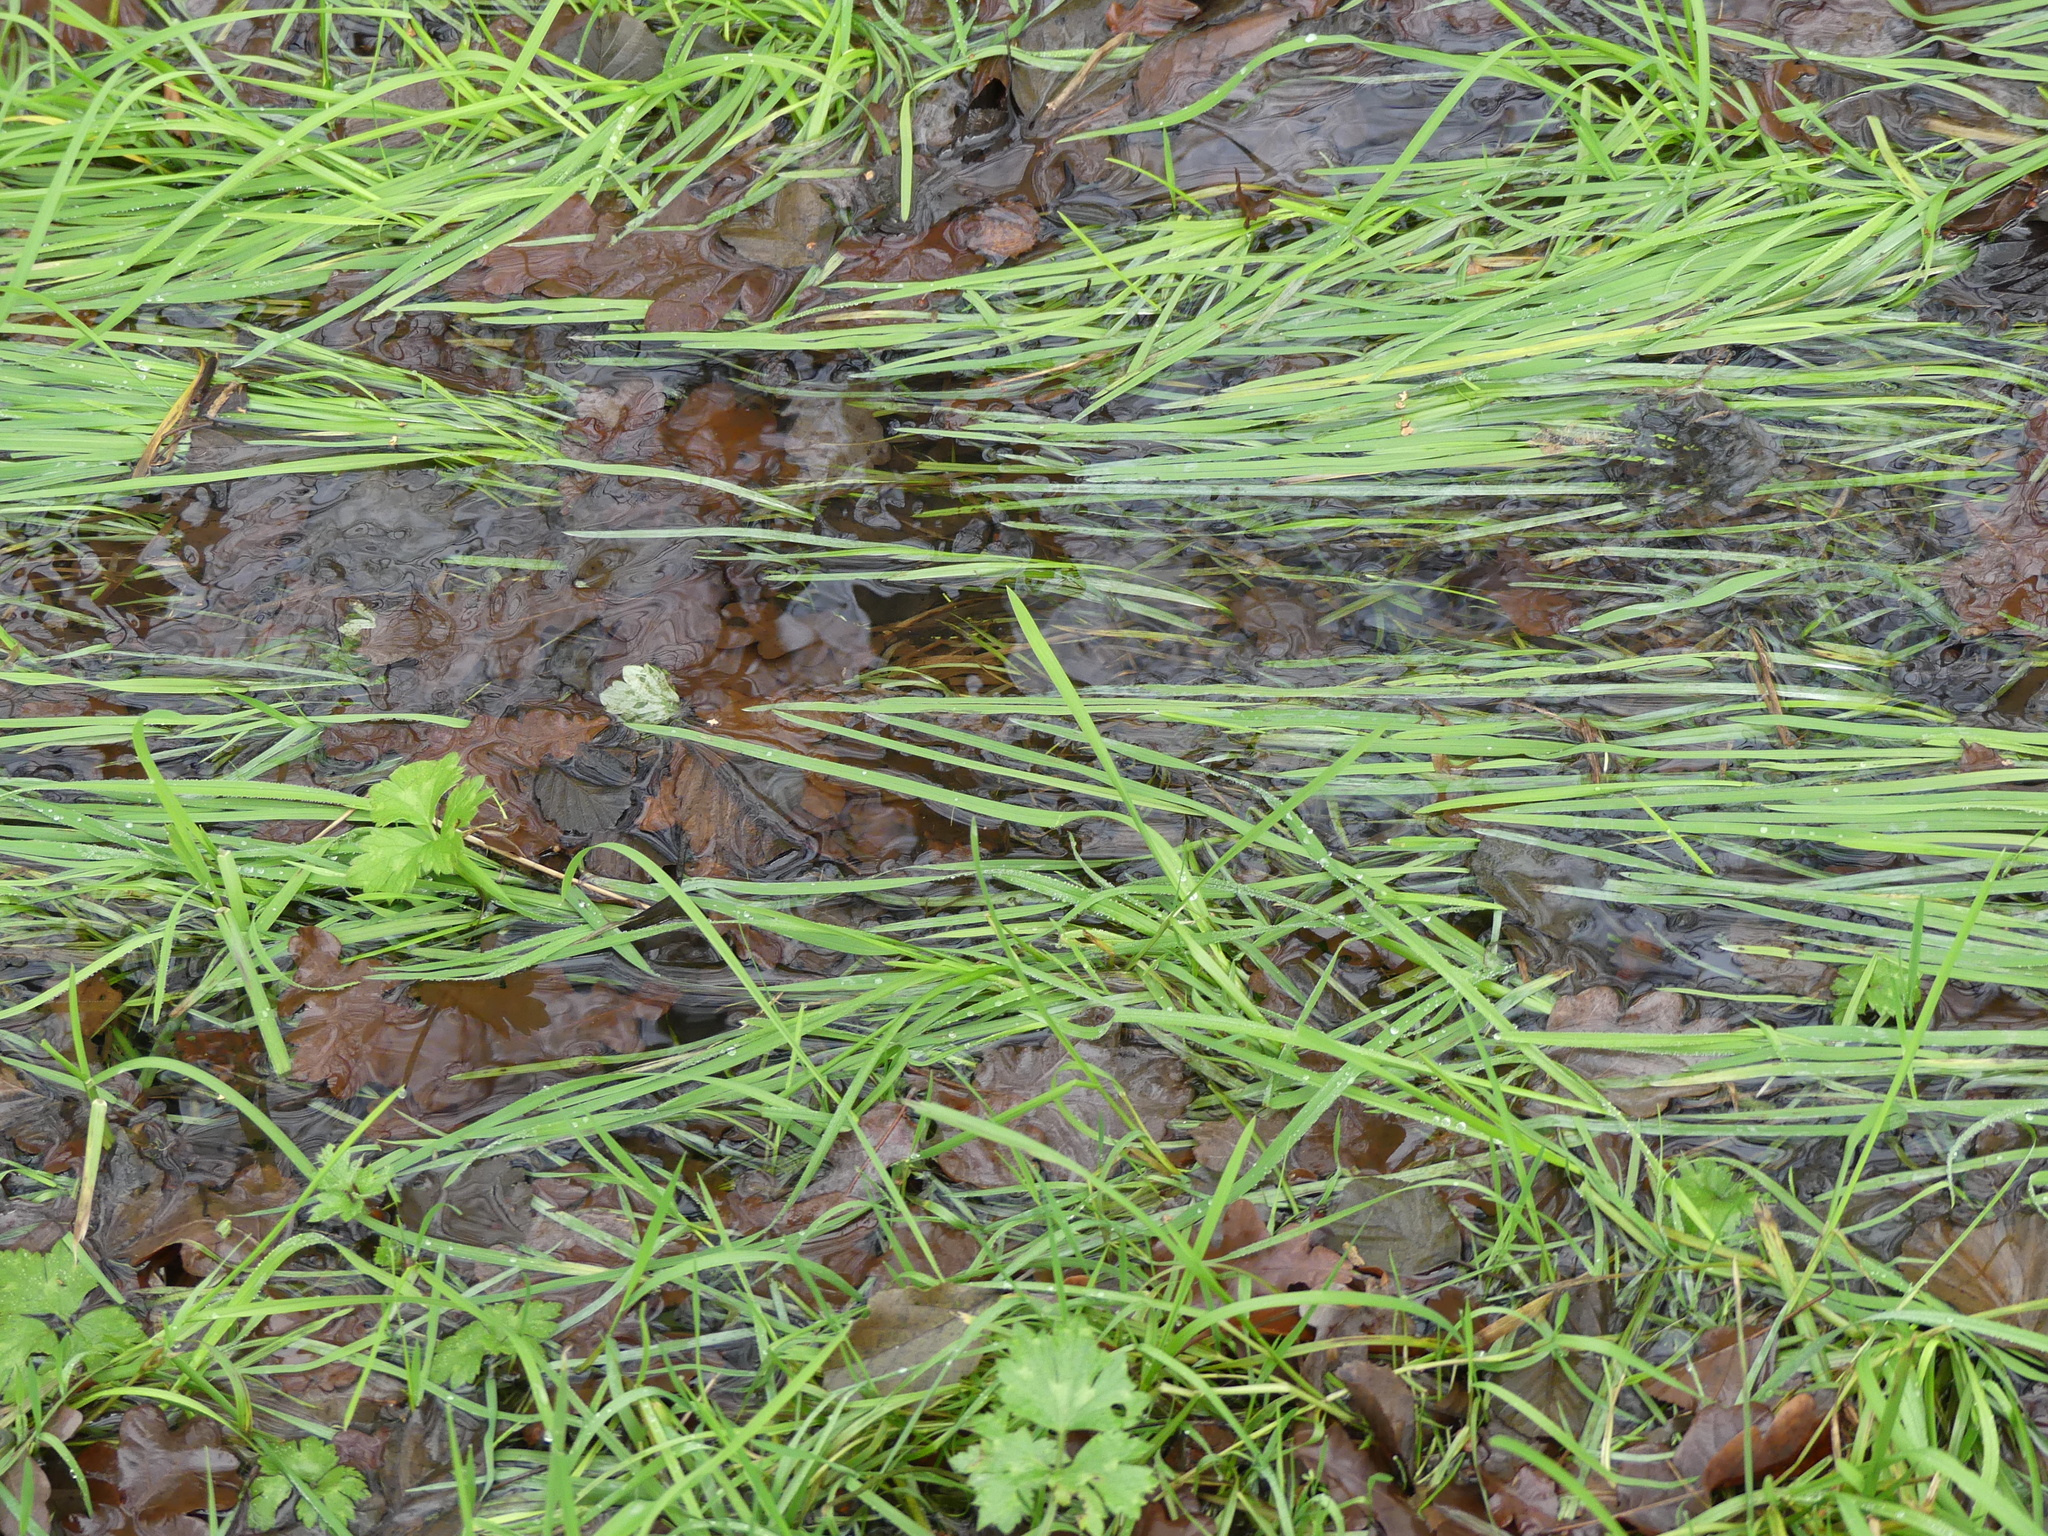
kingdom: Plantae
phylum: Tracheophyta
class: Liliopsida
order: Poales
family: Poaceae
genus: Glyceria
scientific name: Glyceria fluitans
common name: Floating sweet-grass
